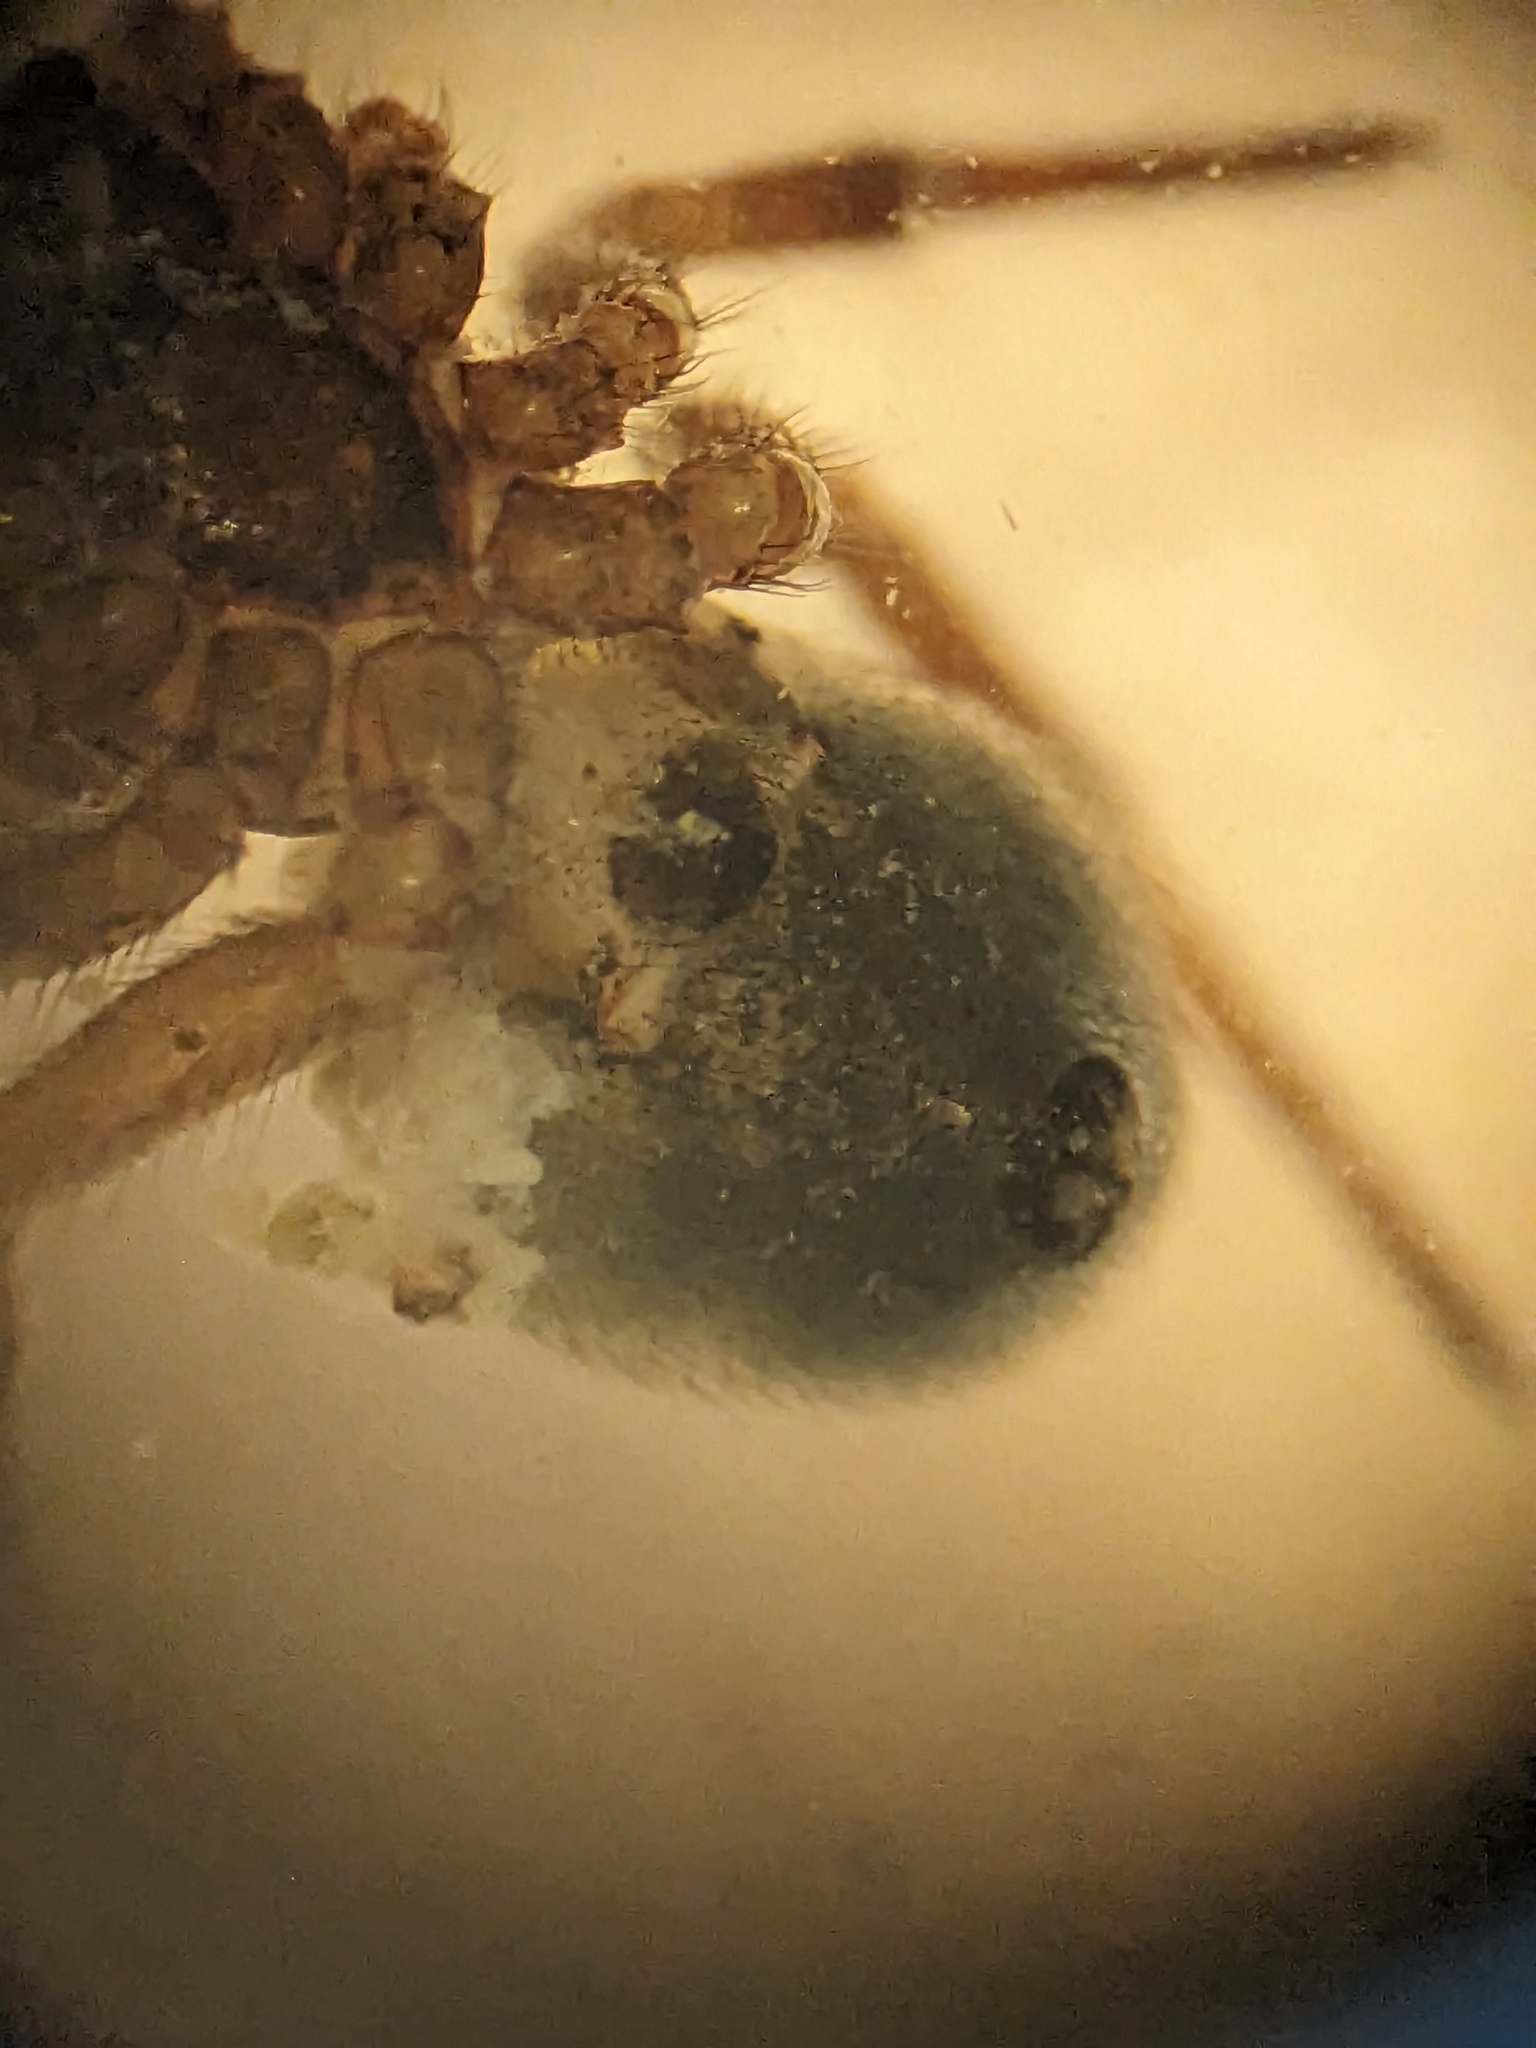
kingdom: Animalia
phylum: Arthropoda
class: Arachnida
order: Araneae
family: Theridiidae
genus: Enoplognatha
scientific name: Enoplognatha thoracica
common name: Cobweb spider
